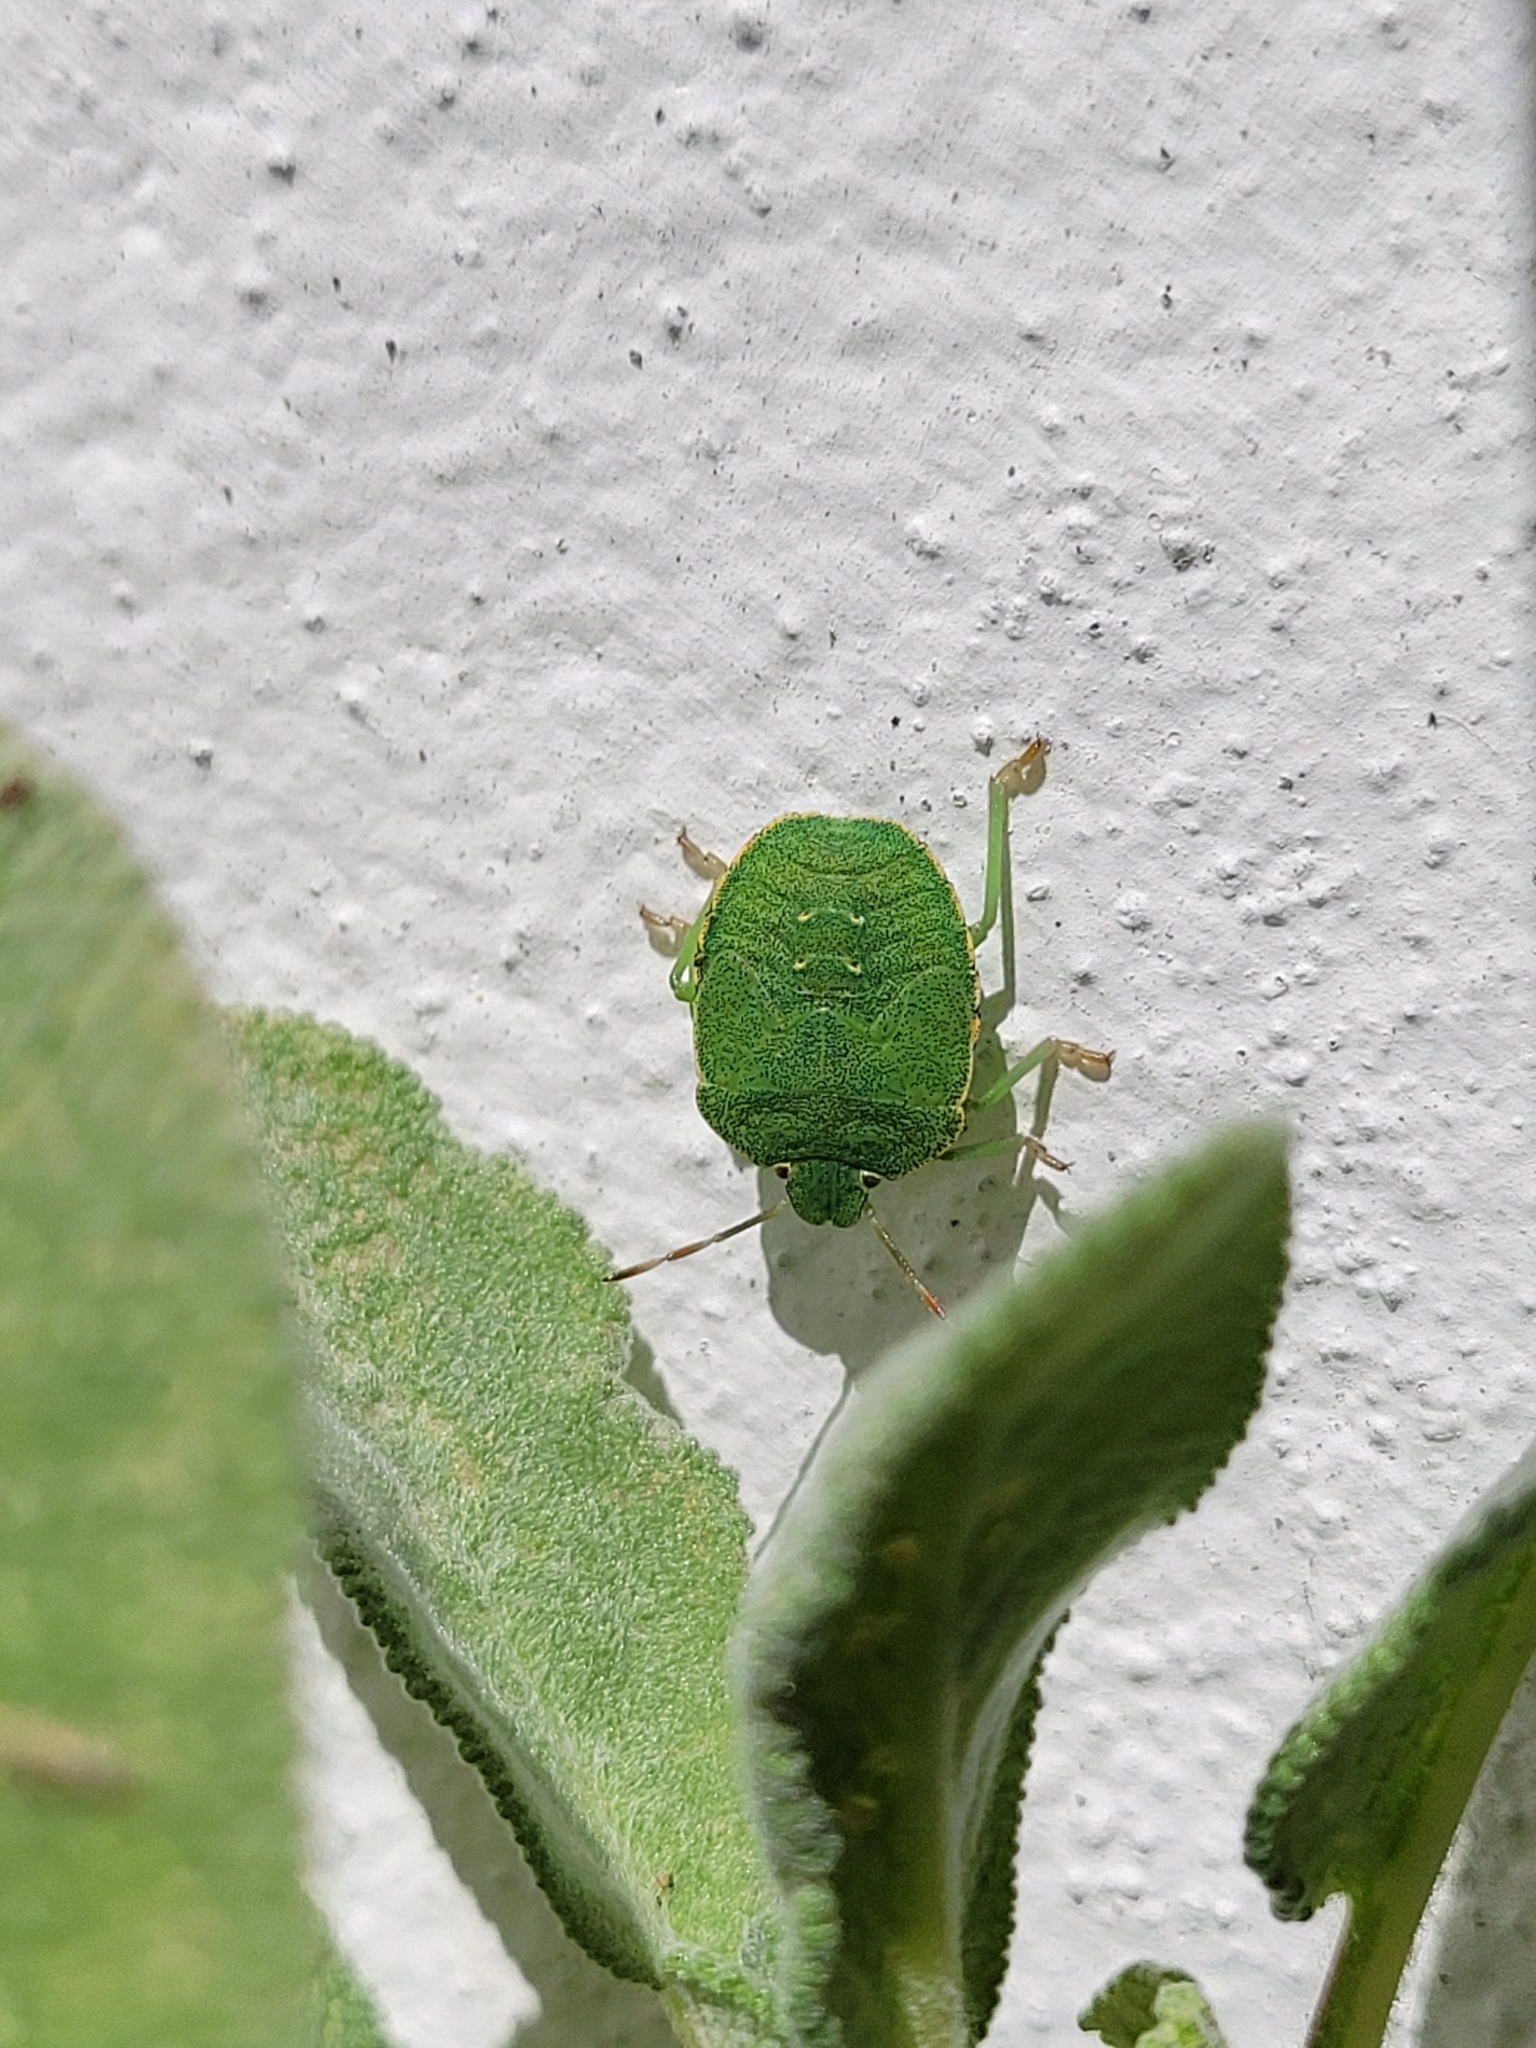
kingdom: Animalia
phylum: Arthropoda
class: Insecta
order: Hemiptera
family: Pentatomidae
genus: Palomena
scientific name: Palomena prasina
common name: Green shieldbug
